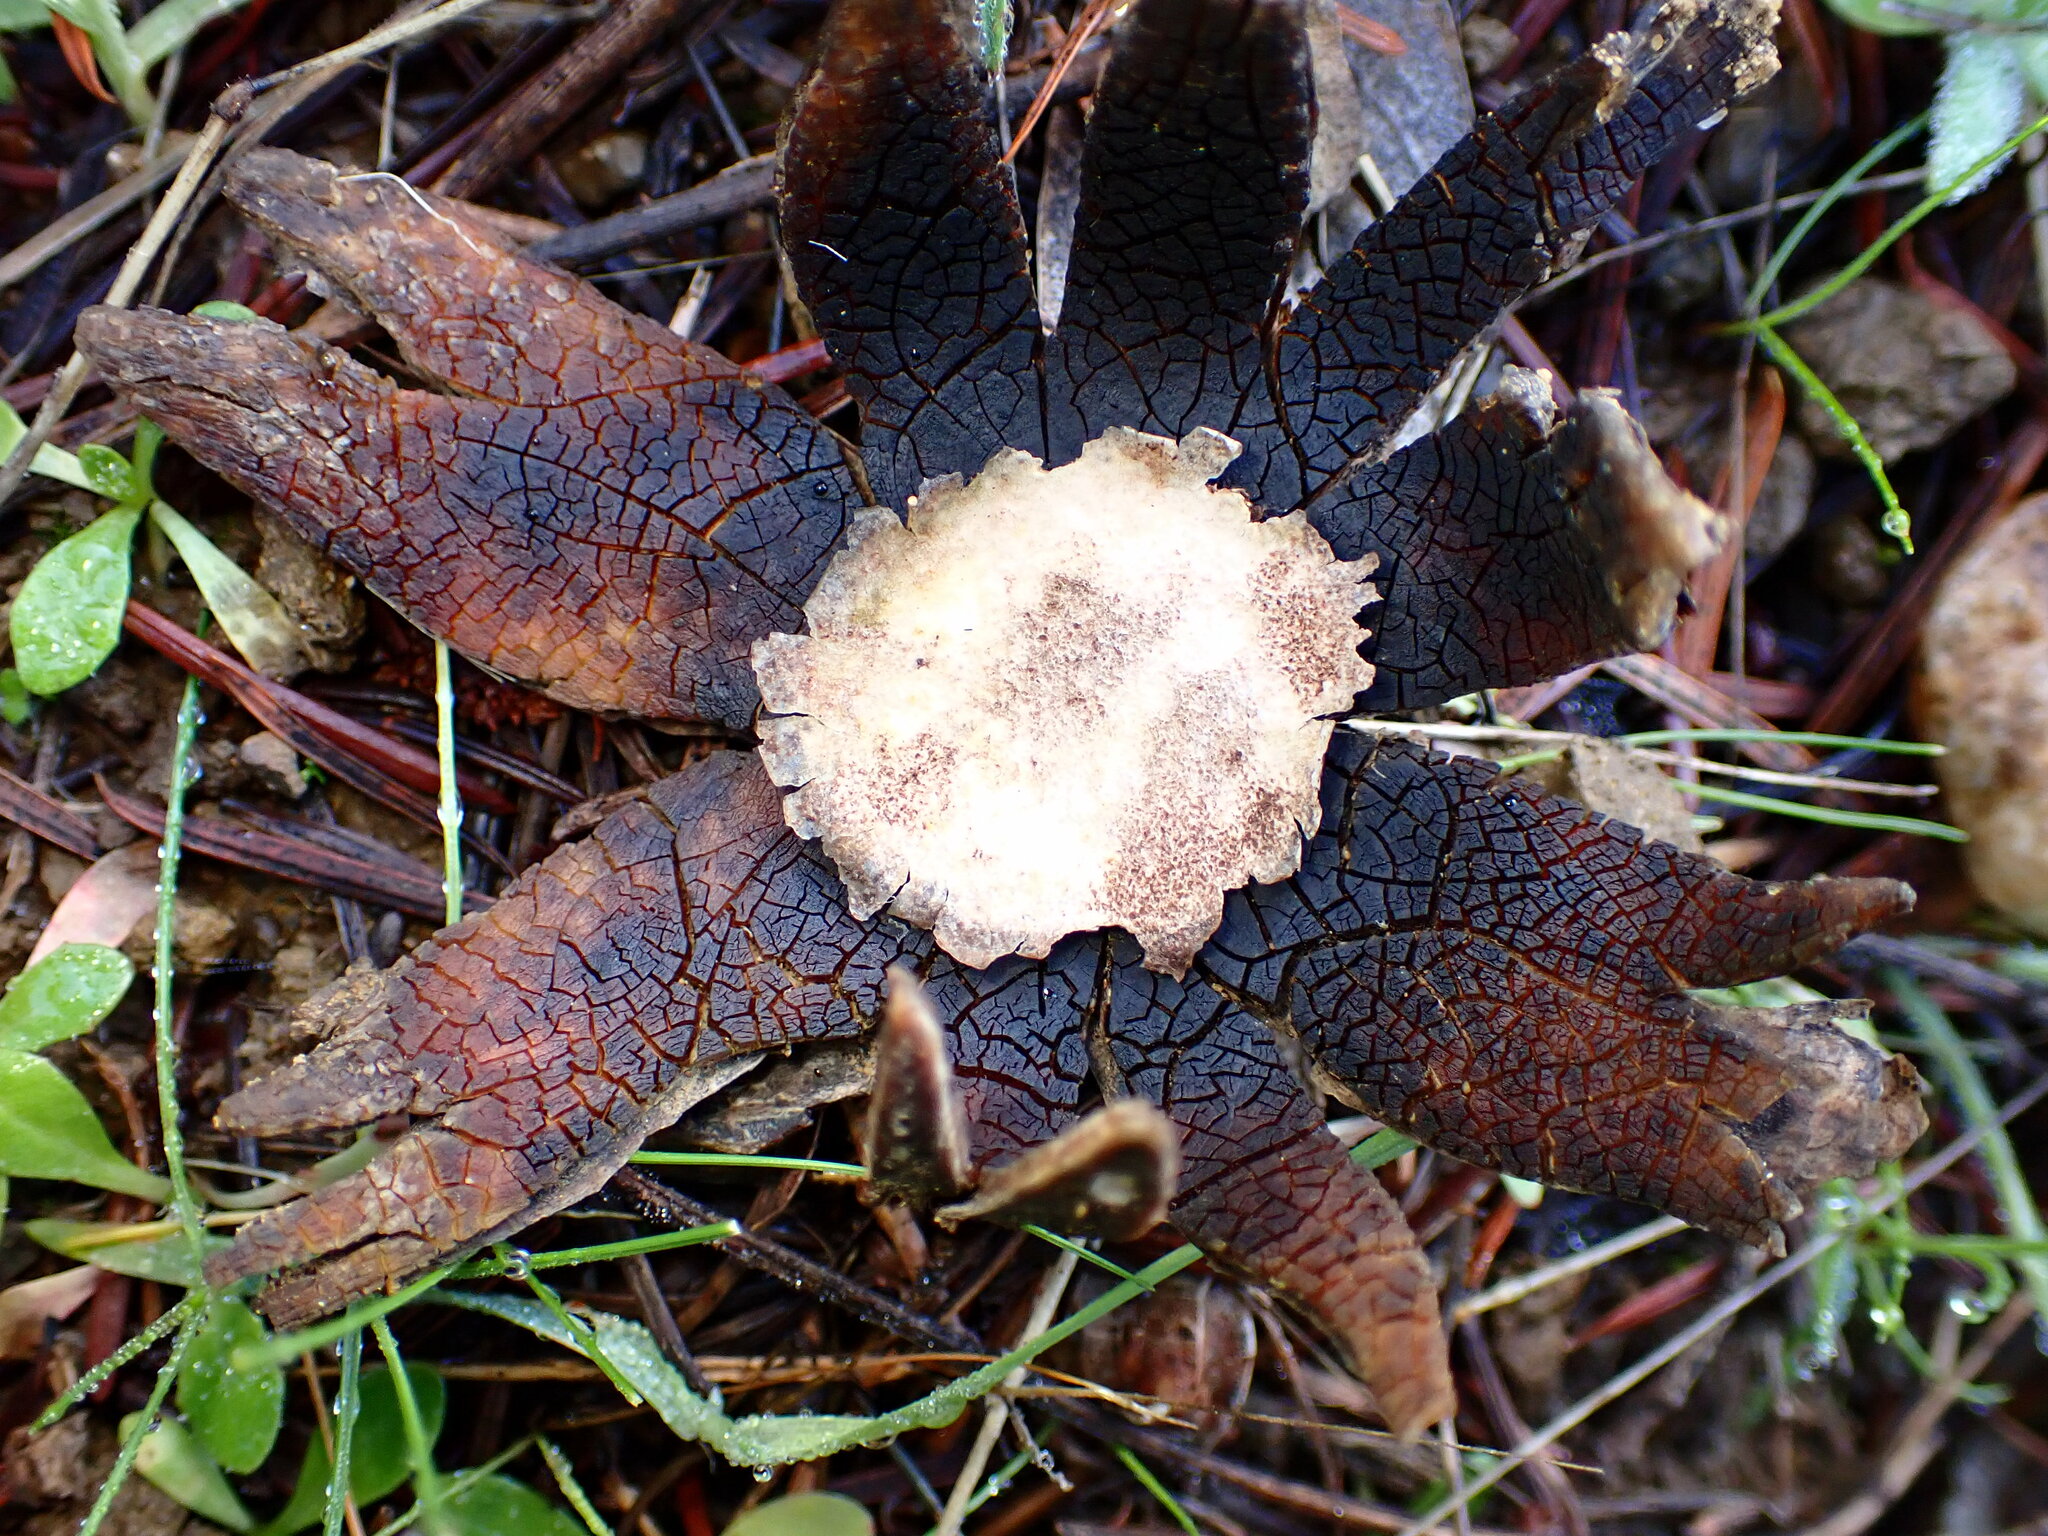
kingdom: Fungi
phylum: Basidiomycota
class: Agaricomycetes
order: Boletales
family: Diplocystidiaceae
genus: Astraeus
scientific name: Astraeus hygrometricus
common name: Barometer earthstar
